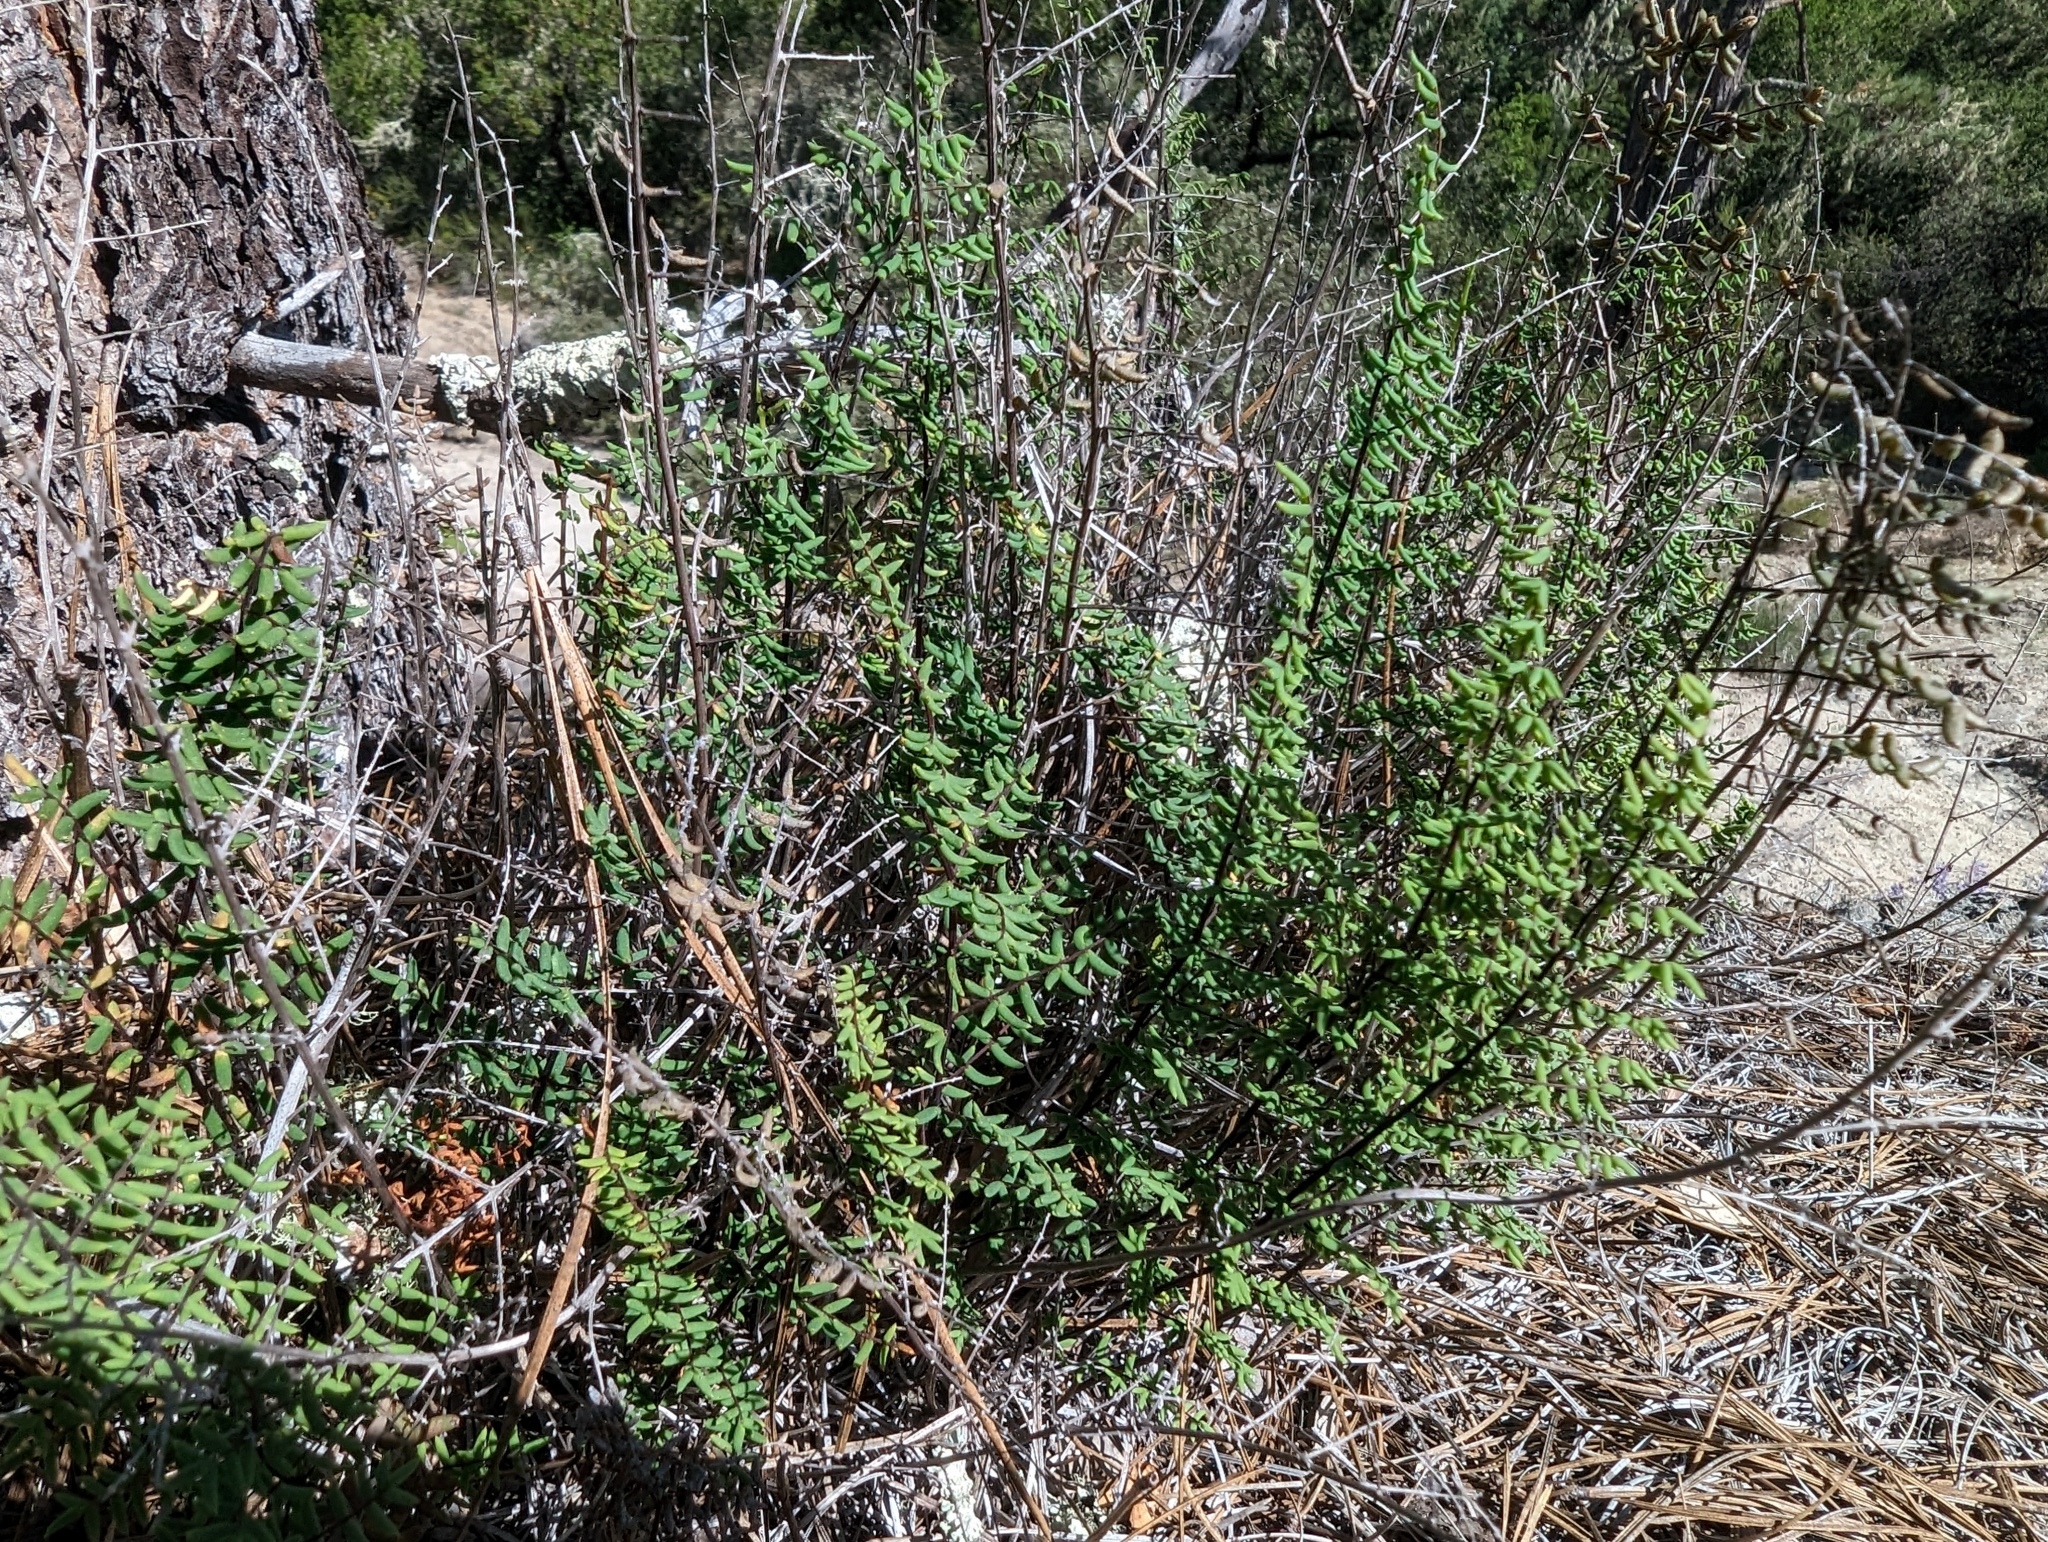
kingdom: Plantae
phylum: Tracheophyta
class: Polypodiopsida
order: Polypodiales
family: Pteridaceae
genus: Pellaea
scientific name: Pellaea mucronata
